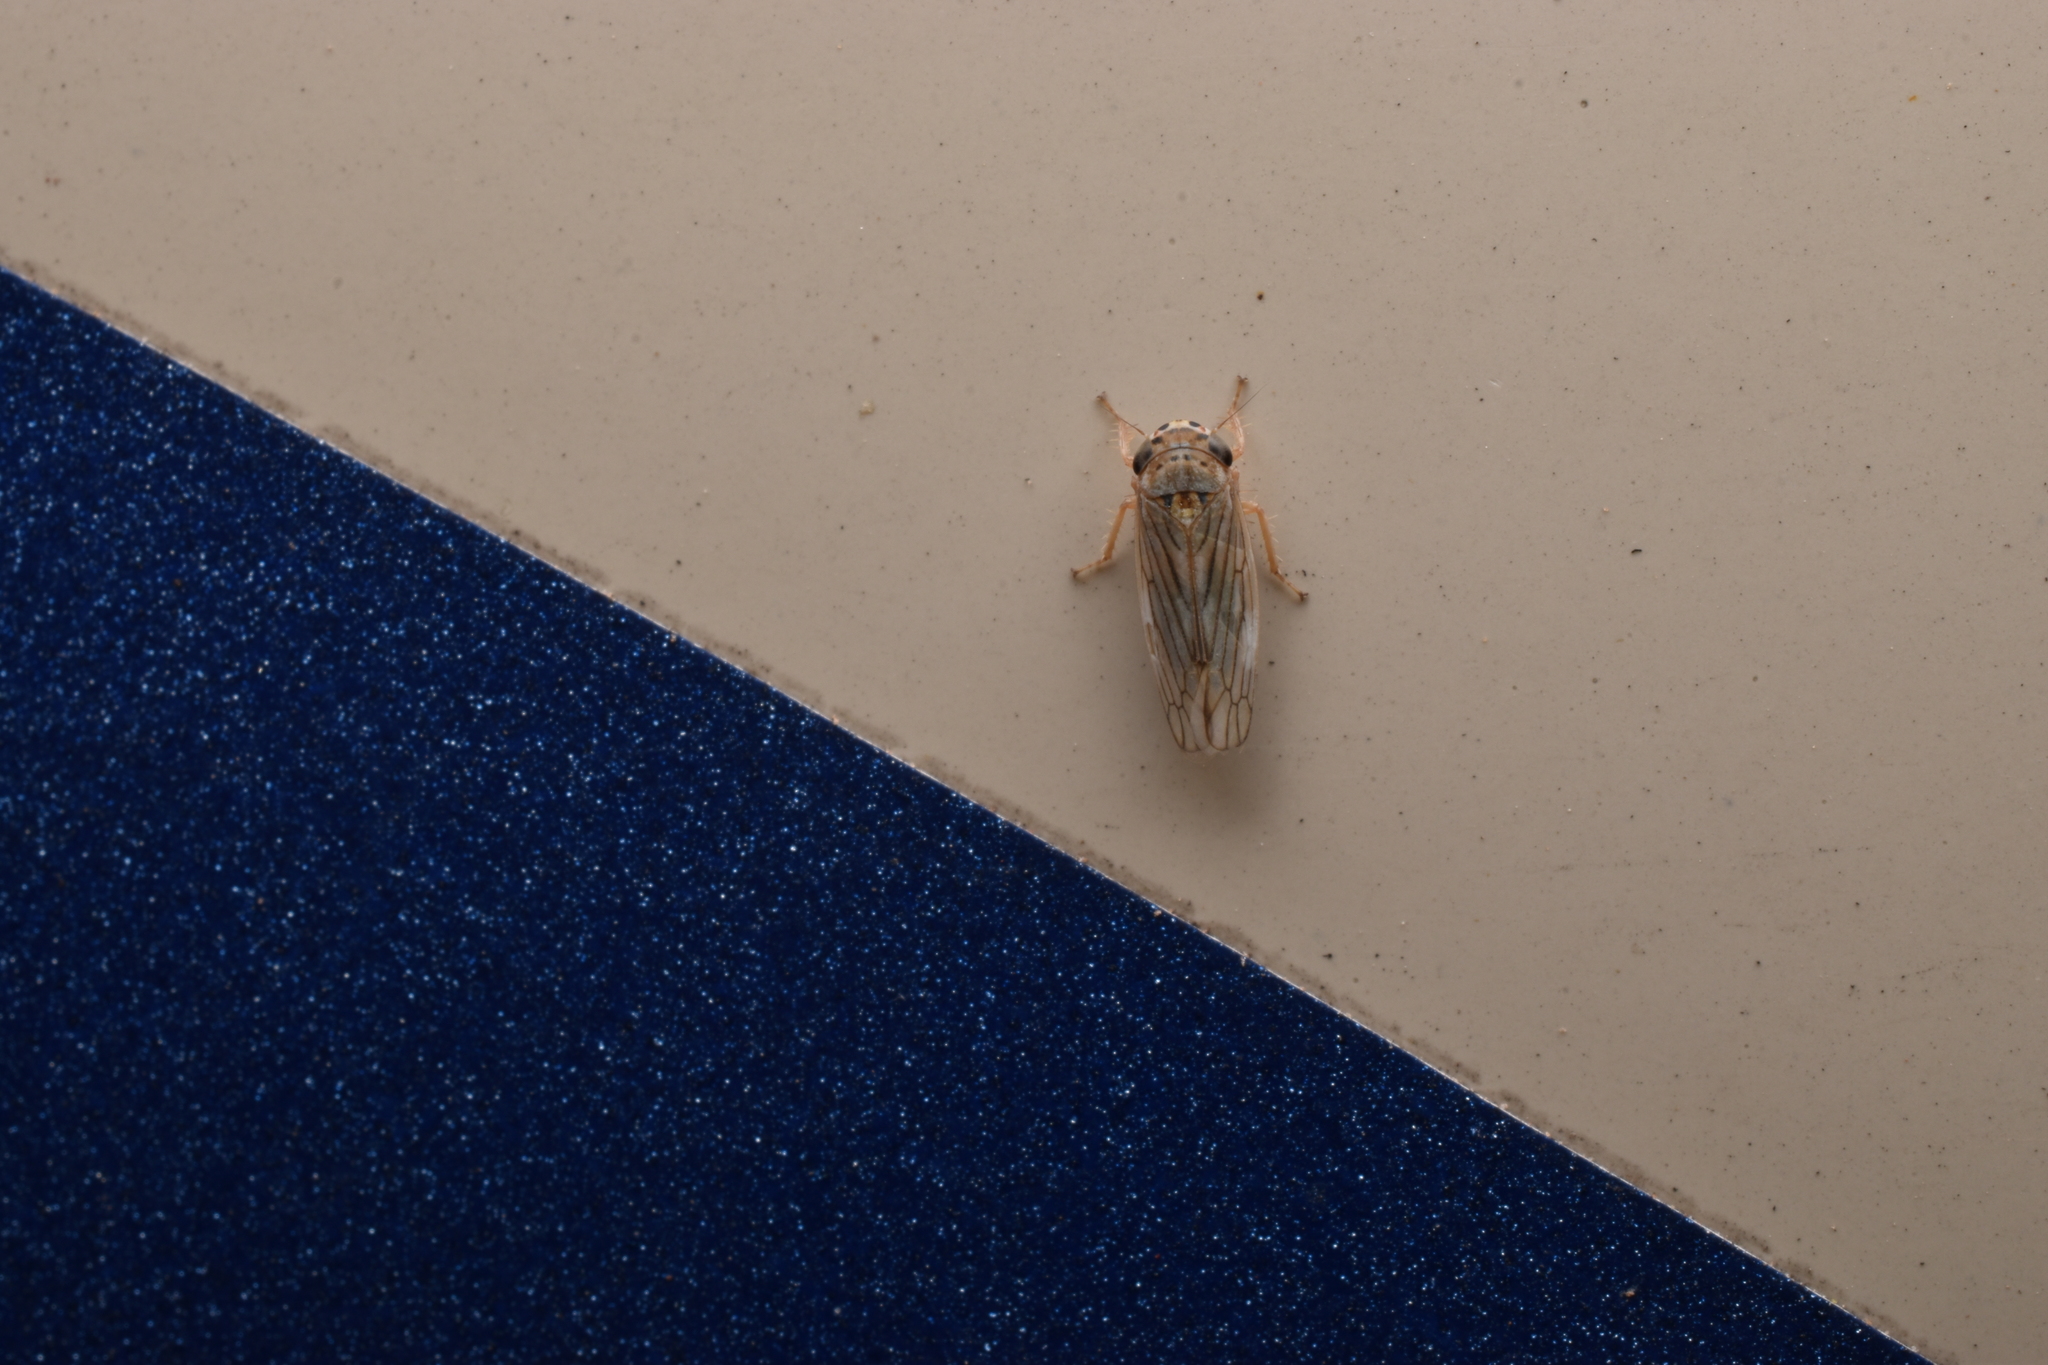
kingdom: Animalia
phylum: Arthropoda
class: Insecta
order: Hemiptera
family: Cicadellidae
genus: Exitianus
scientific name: Exitianus exitiosus
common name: Gray lawn leafhopper
